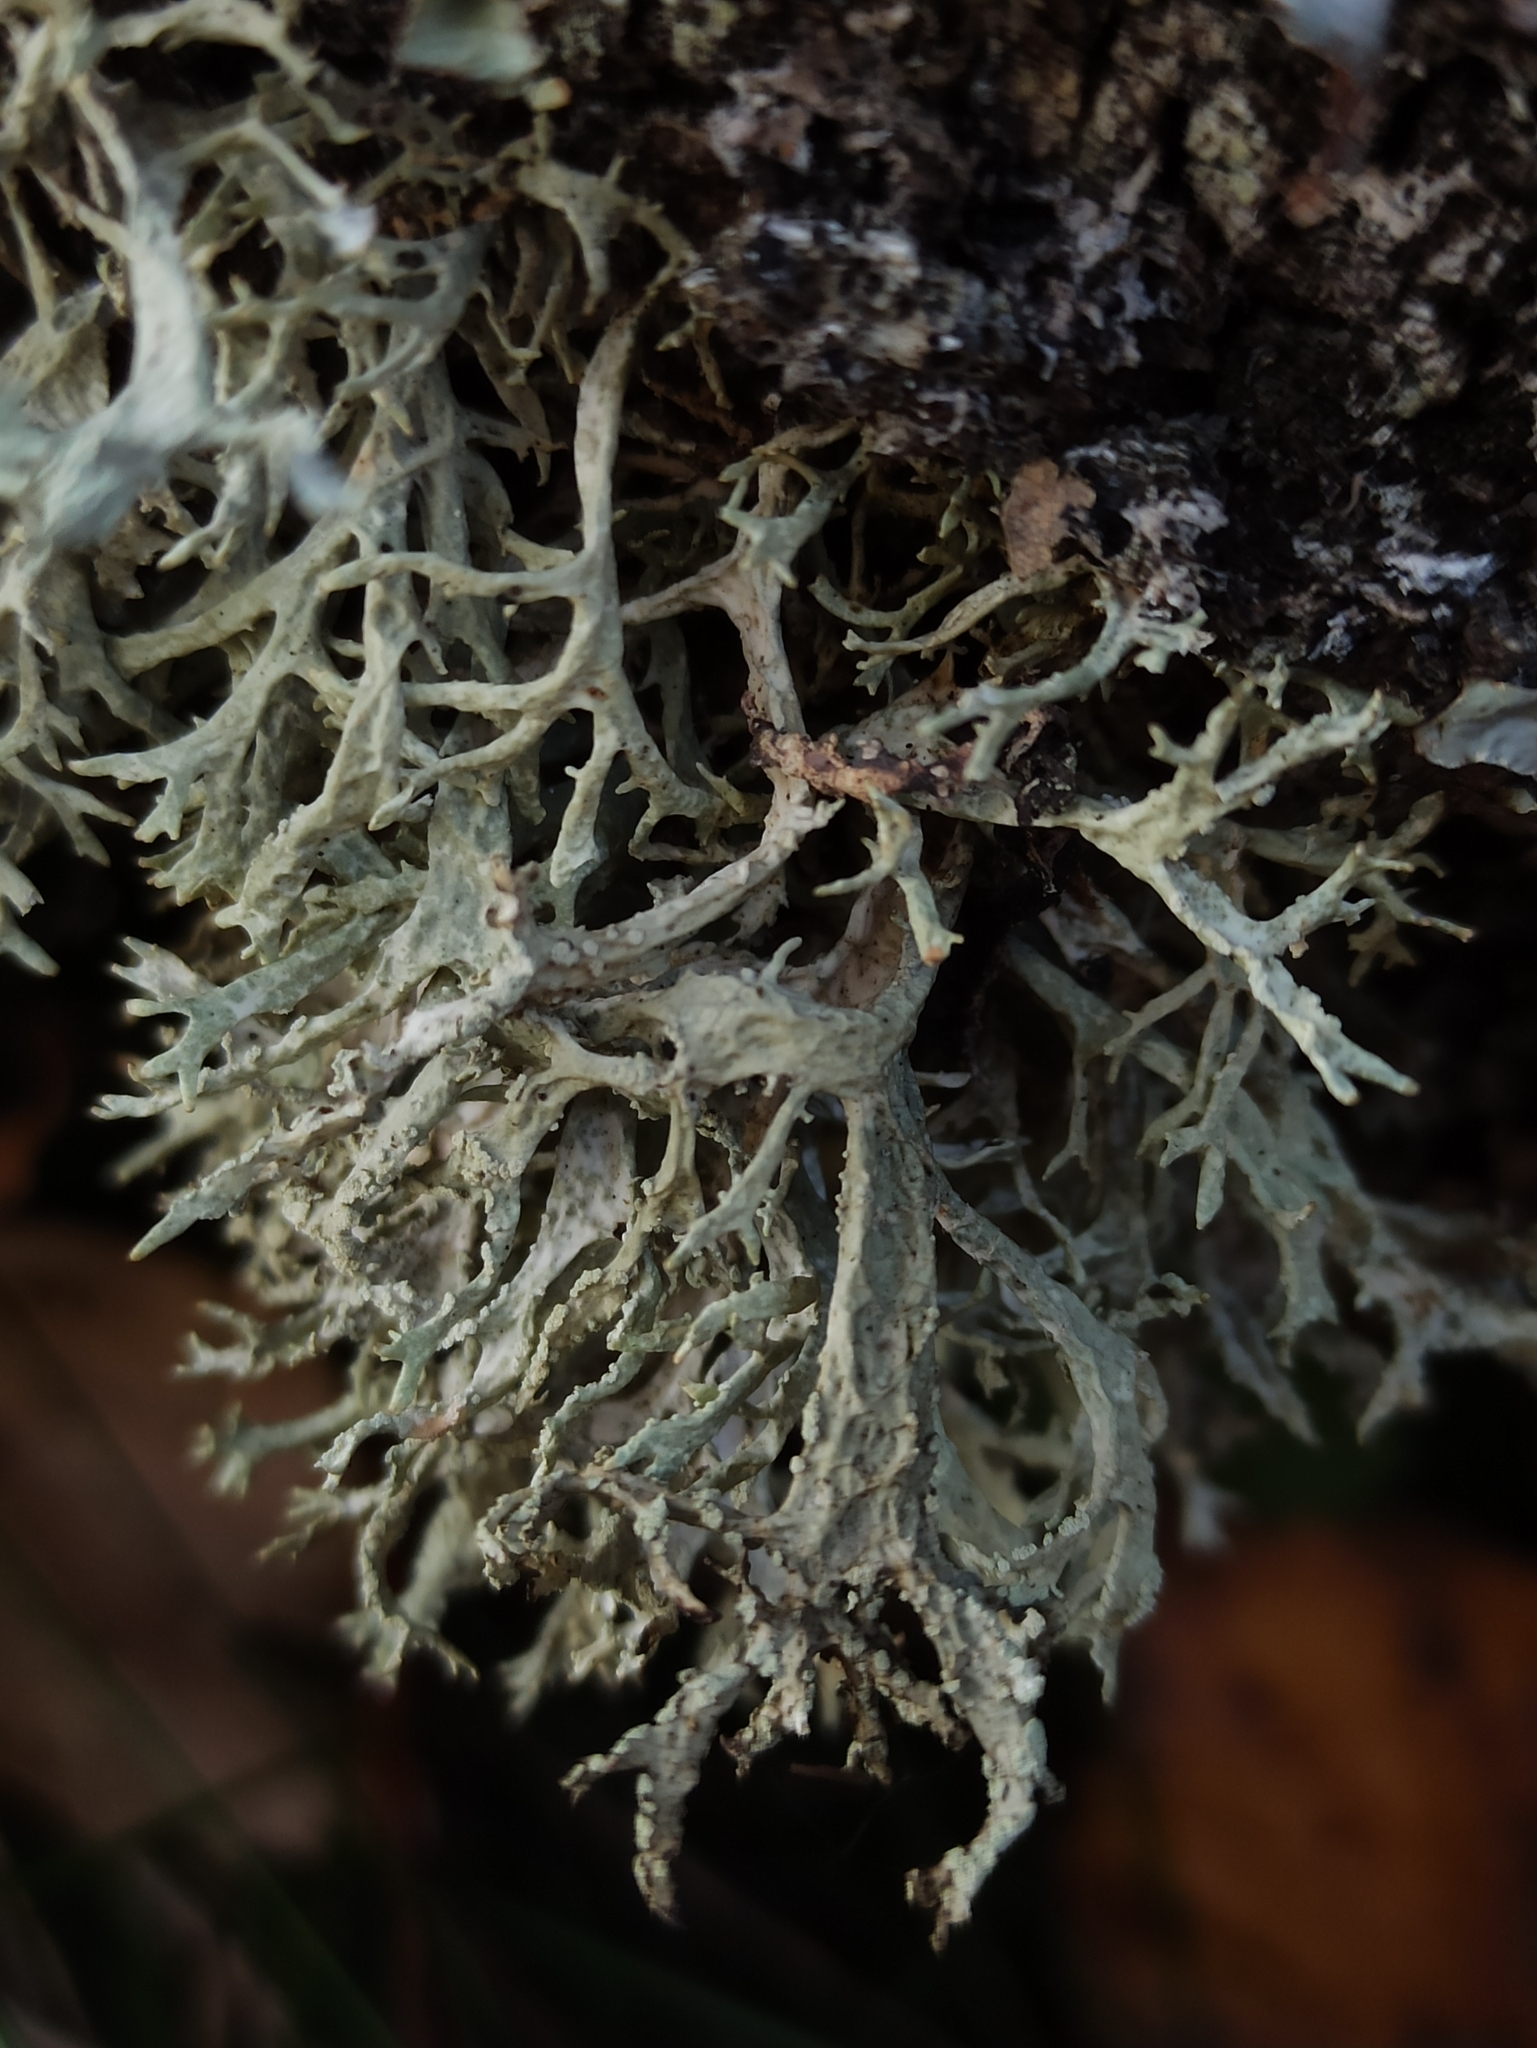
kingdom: Fungi
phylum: Ascomycota
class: Lecanoromycetes
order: Lecanorales
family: Parmeliaceae
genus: Evernia
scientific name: Evernia prunastri
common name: Oak moss
